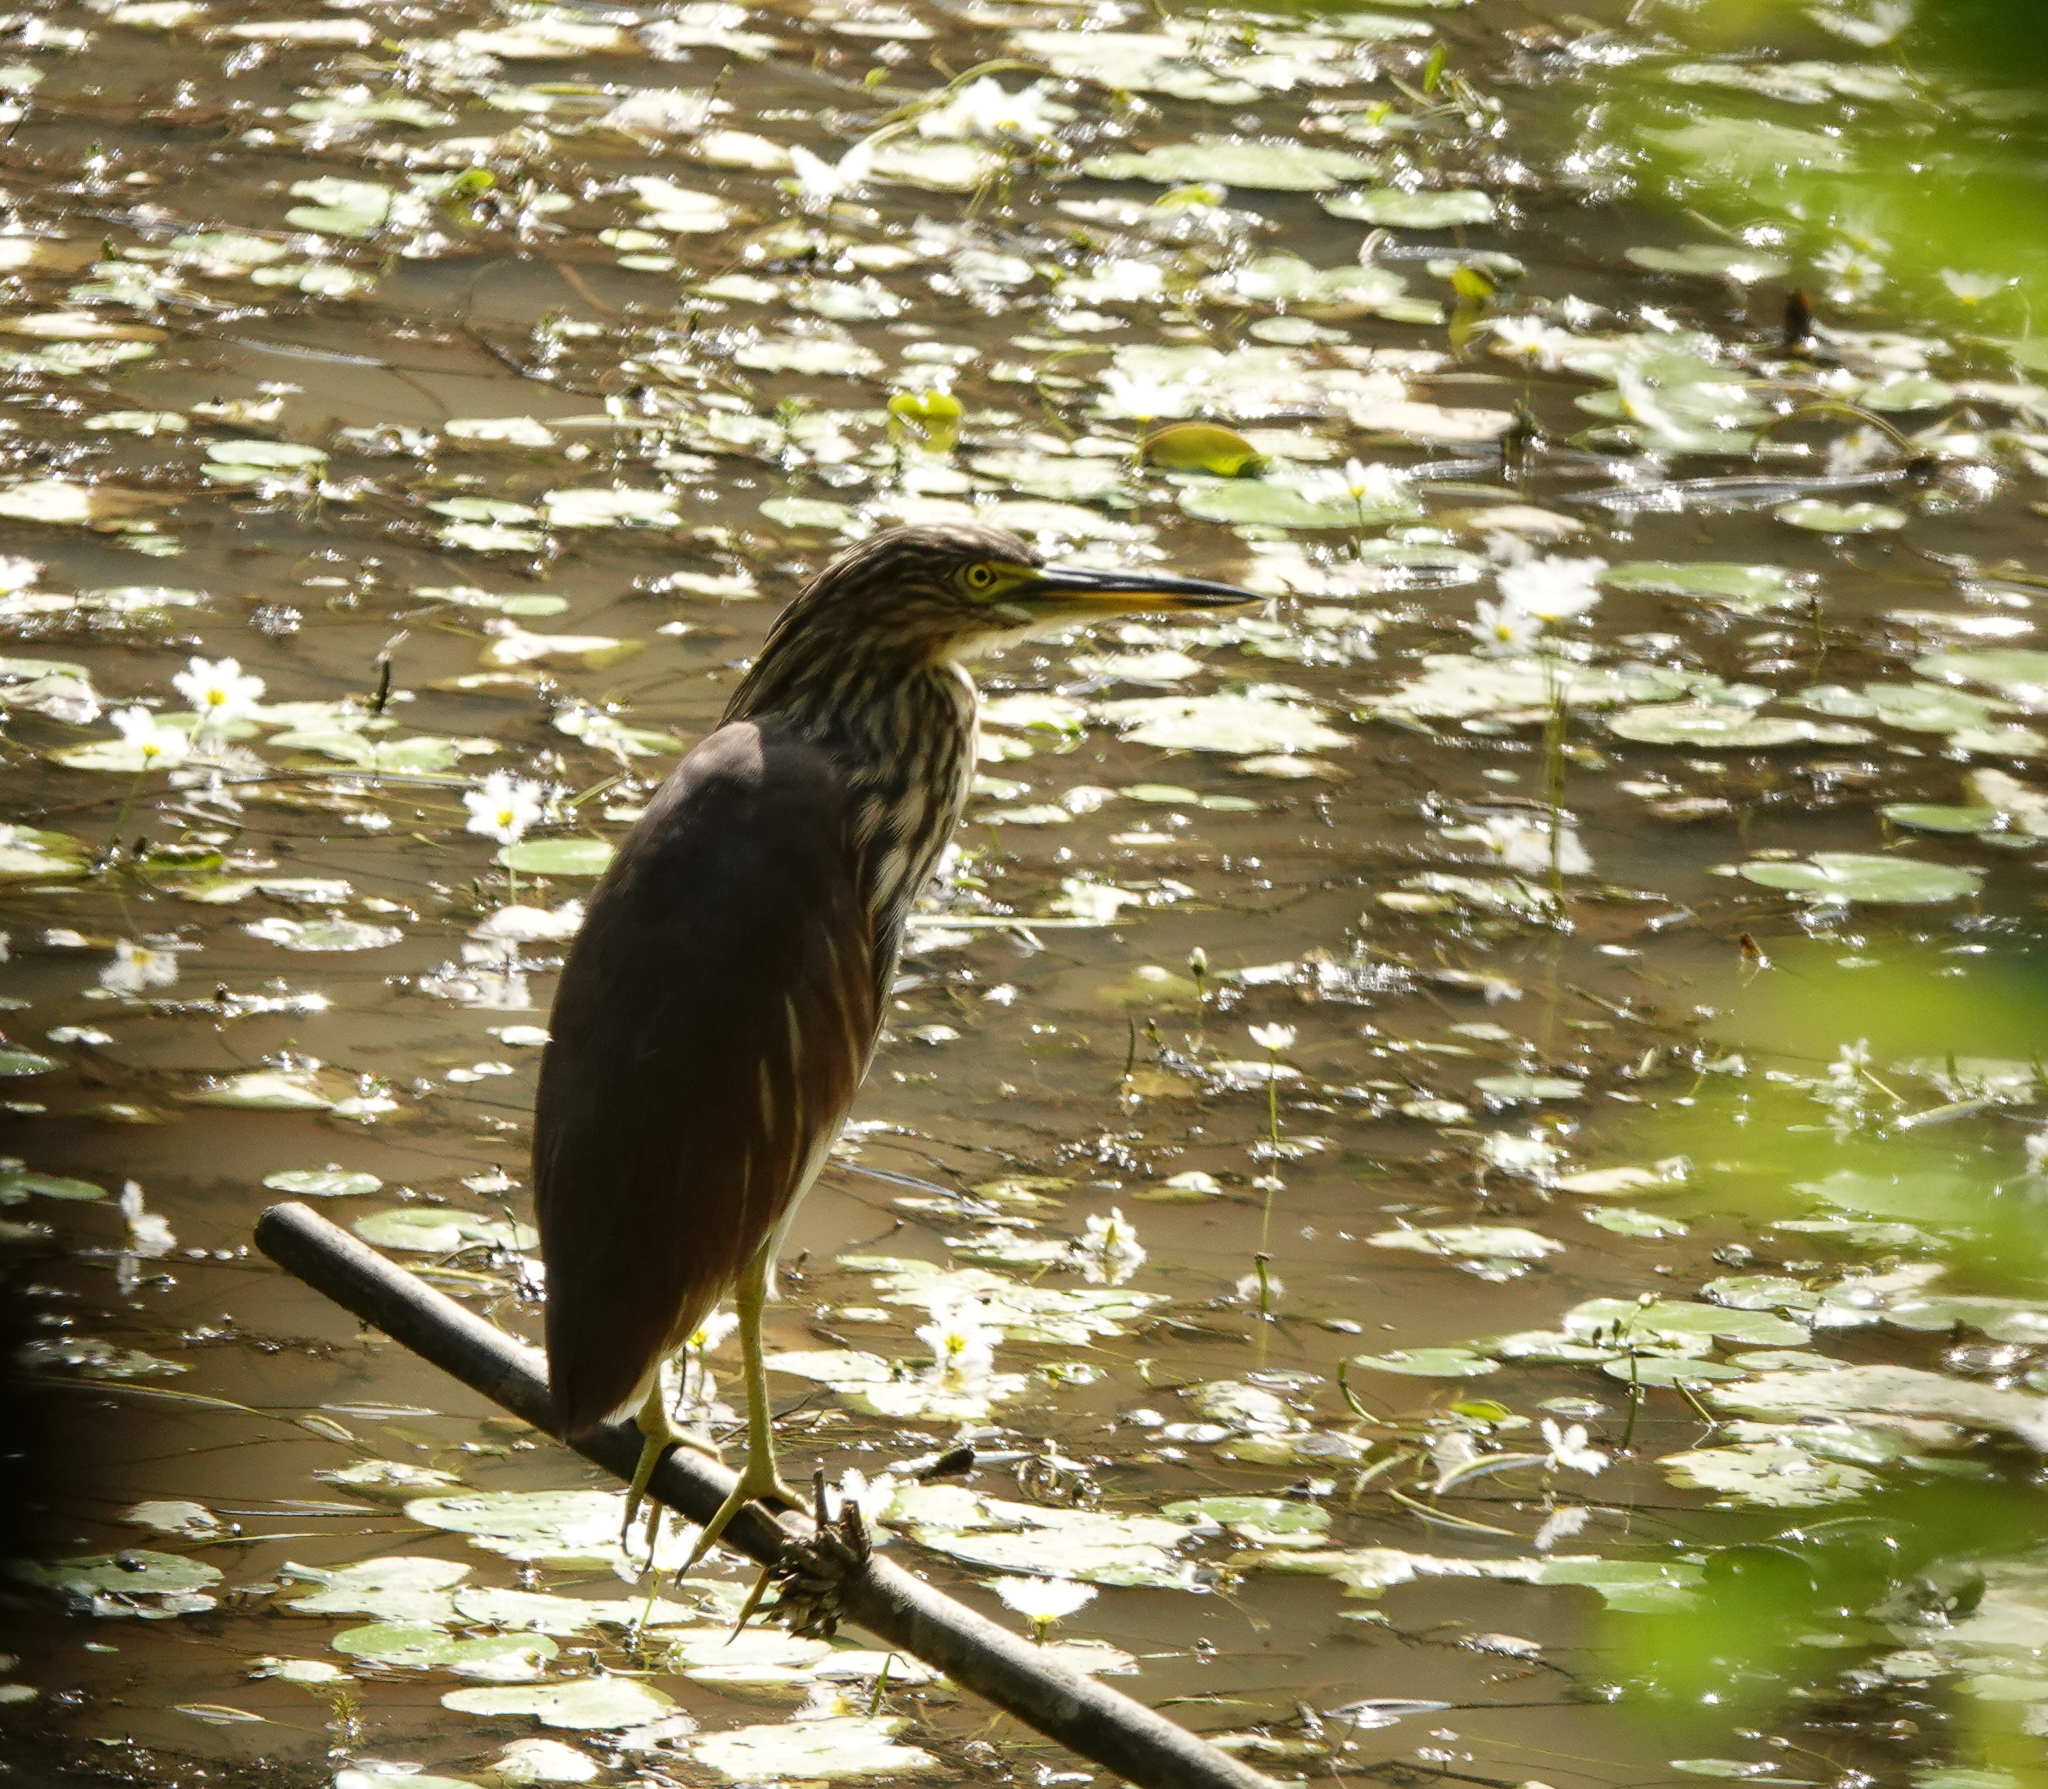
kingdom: Animalia
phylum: Chordata
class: Aves
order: Pelecaniformes
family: Ardeidae
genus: Ardeola
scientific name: Ardeola grayii
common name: Indian pond heron
